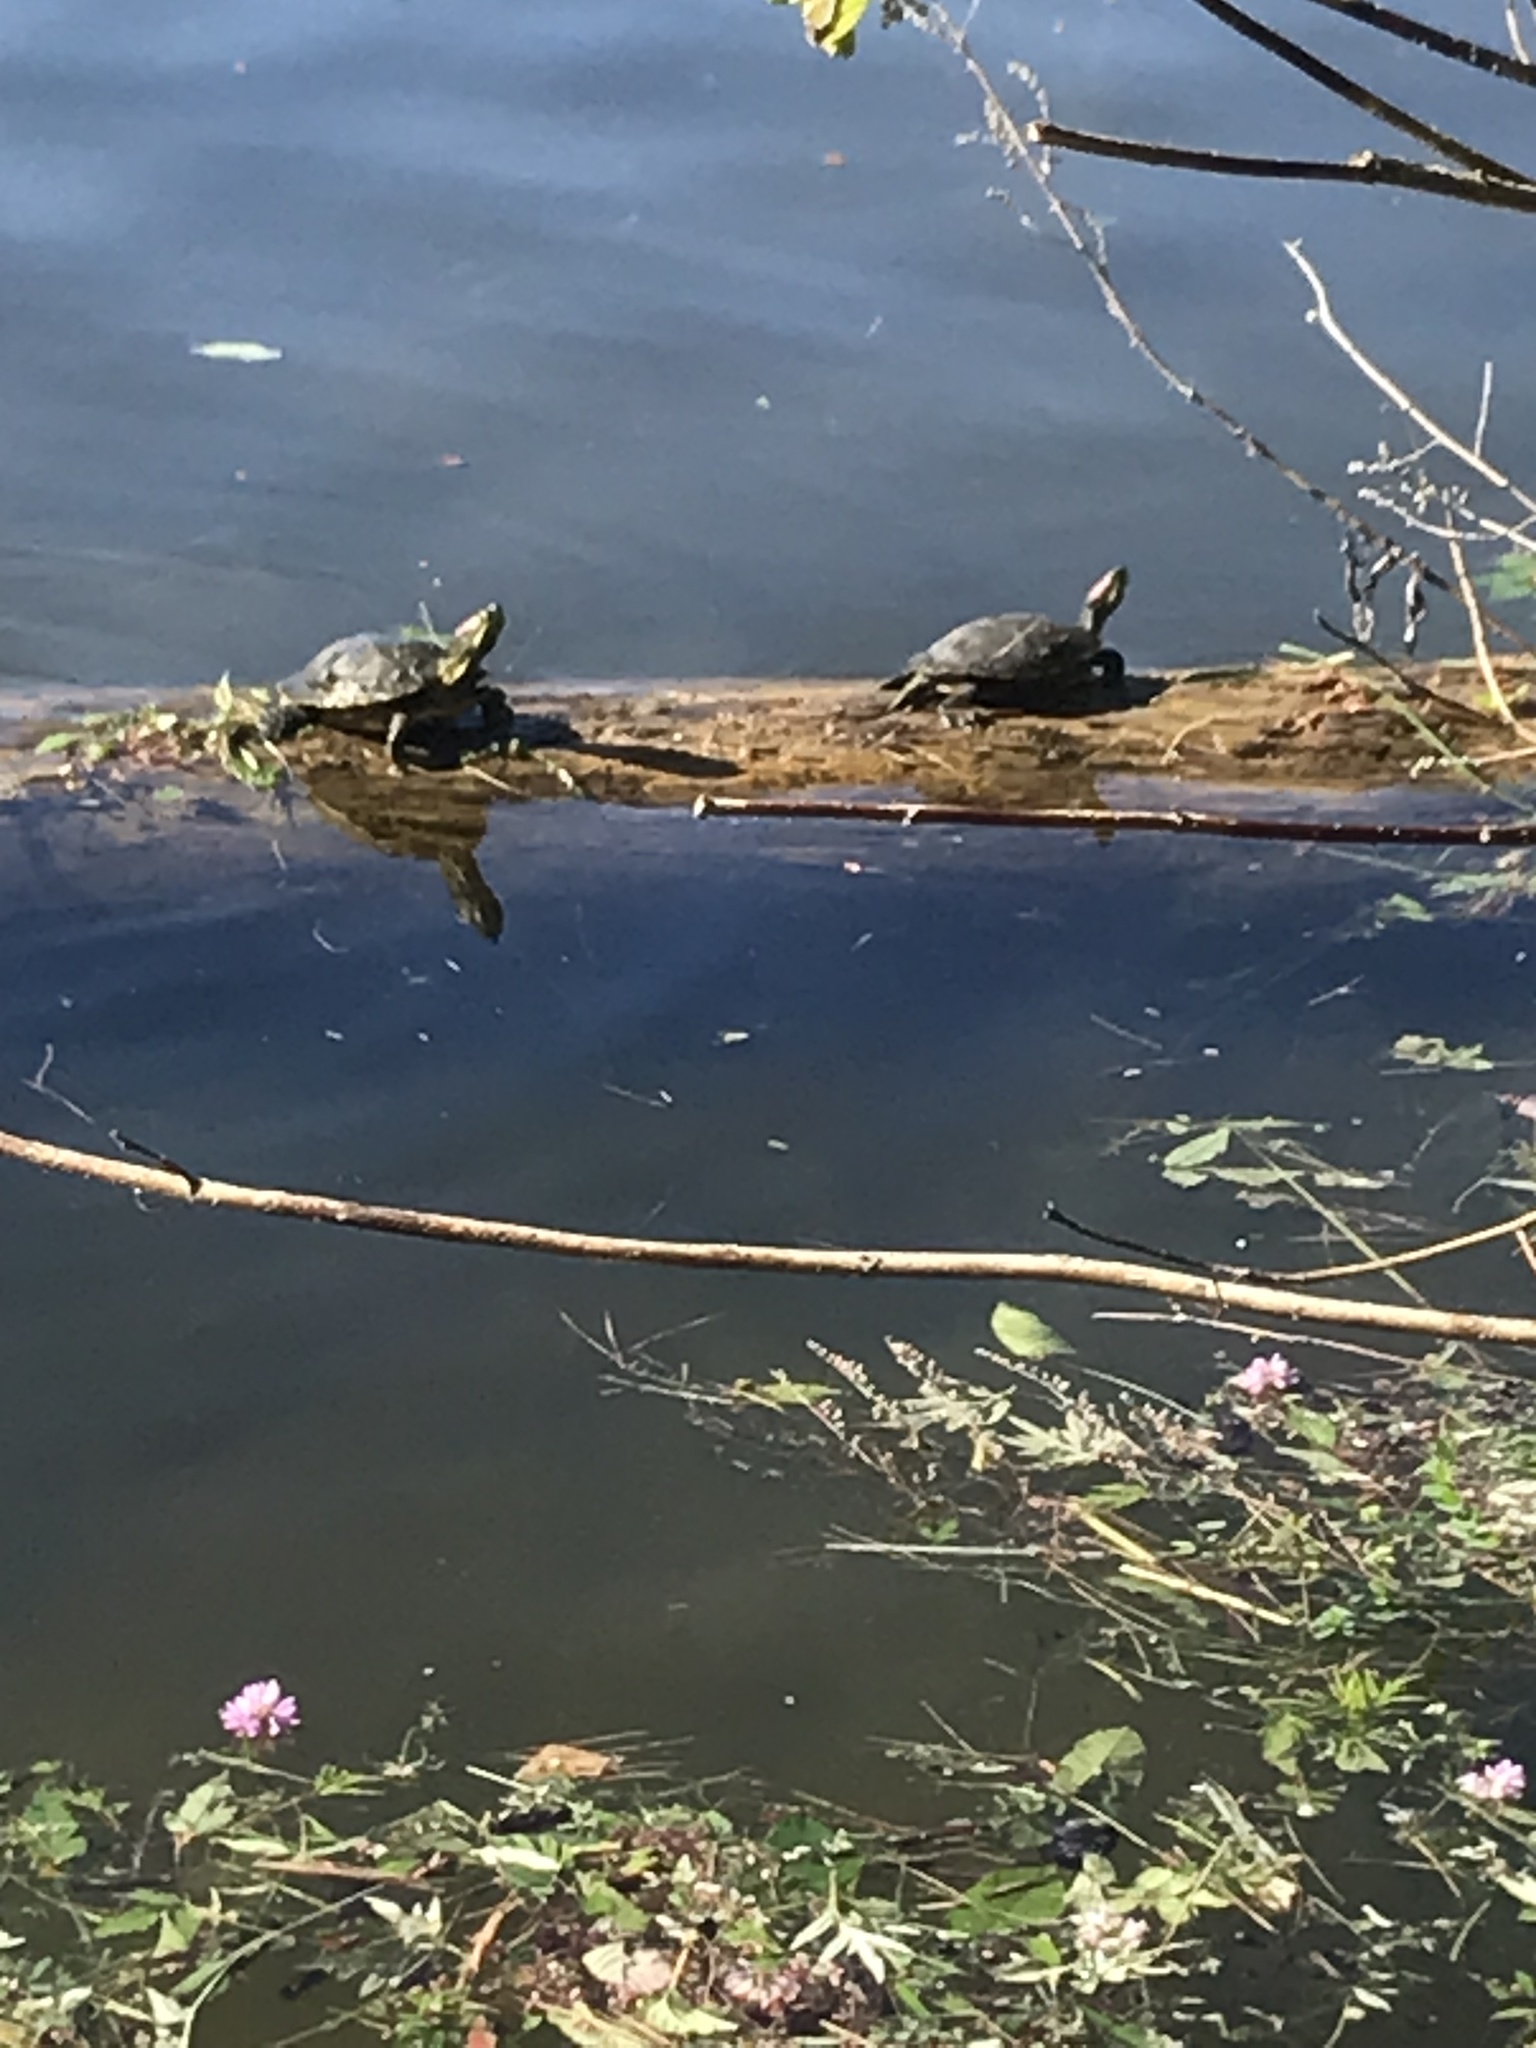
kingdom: Animalia
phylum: Chordata
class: Testudines
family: Emydidae
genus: Trachemys
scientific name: Trachemys scripta
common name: Slider
